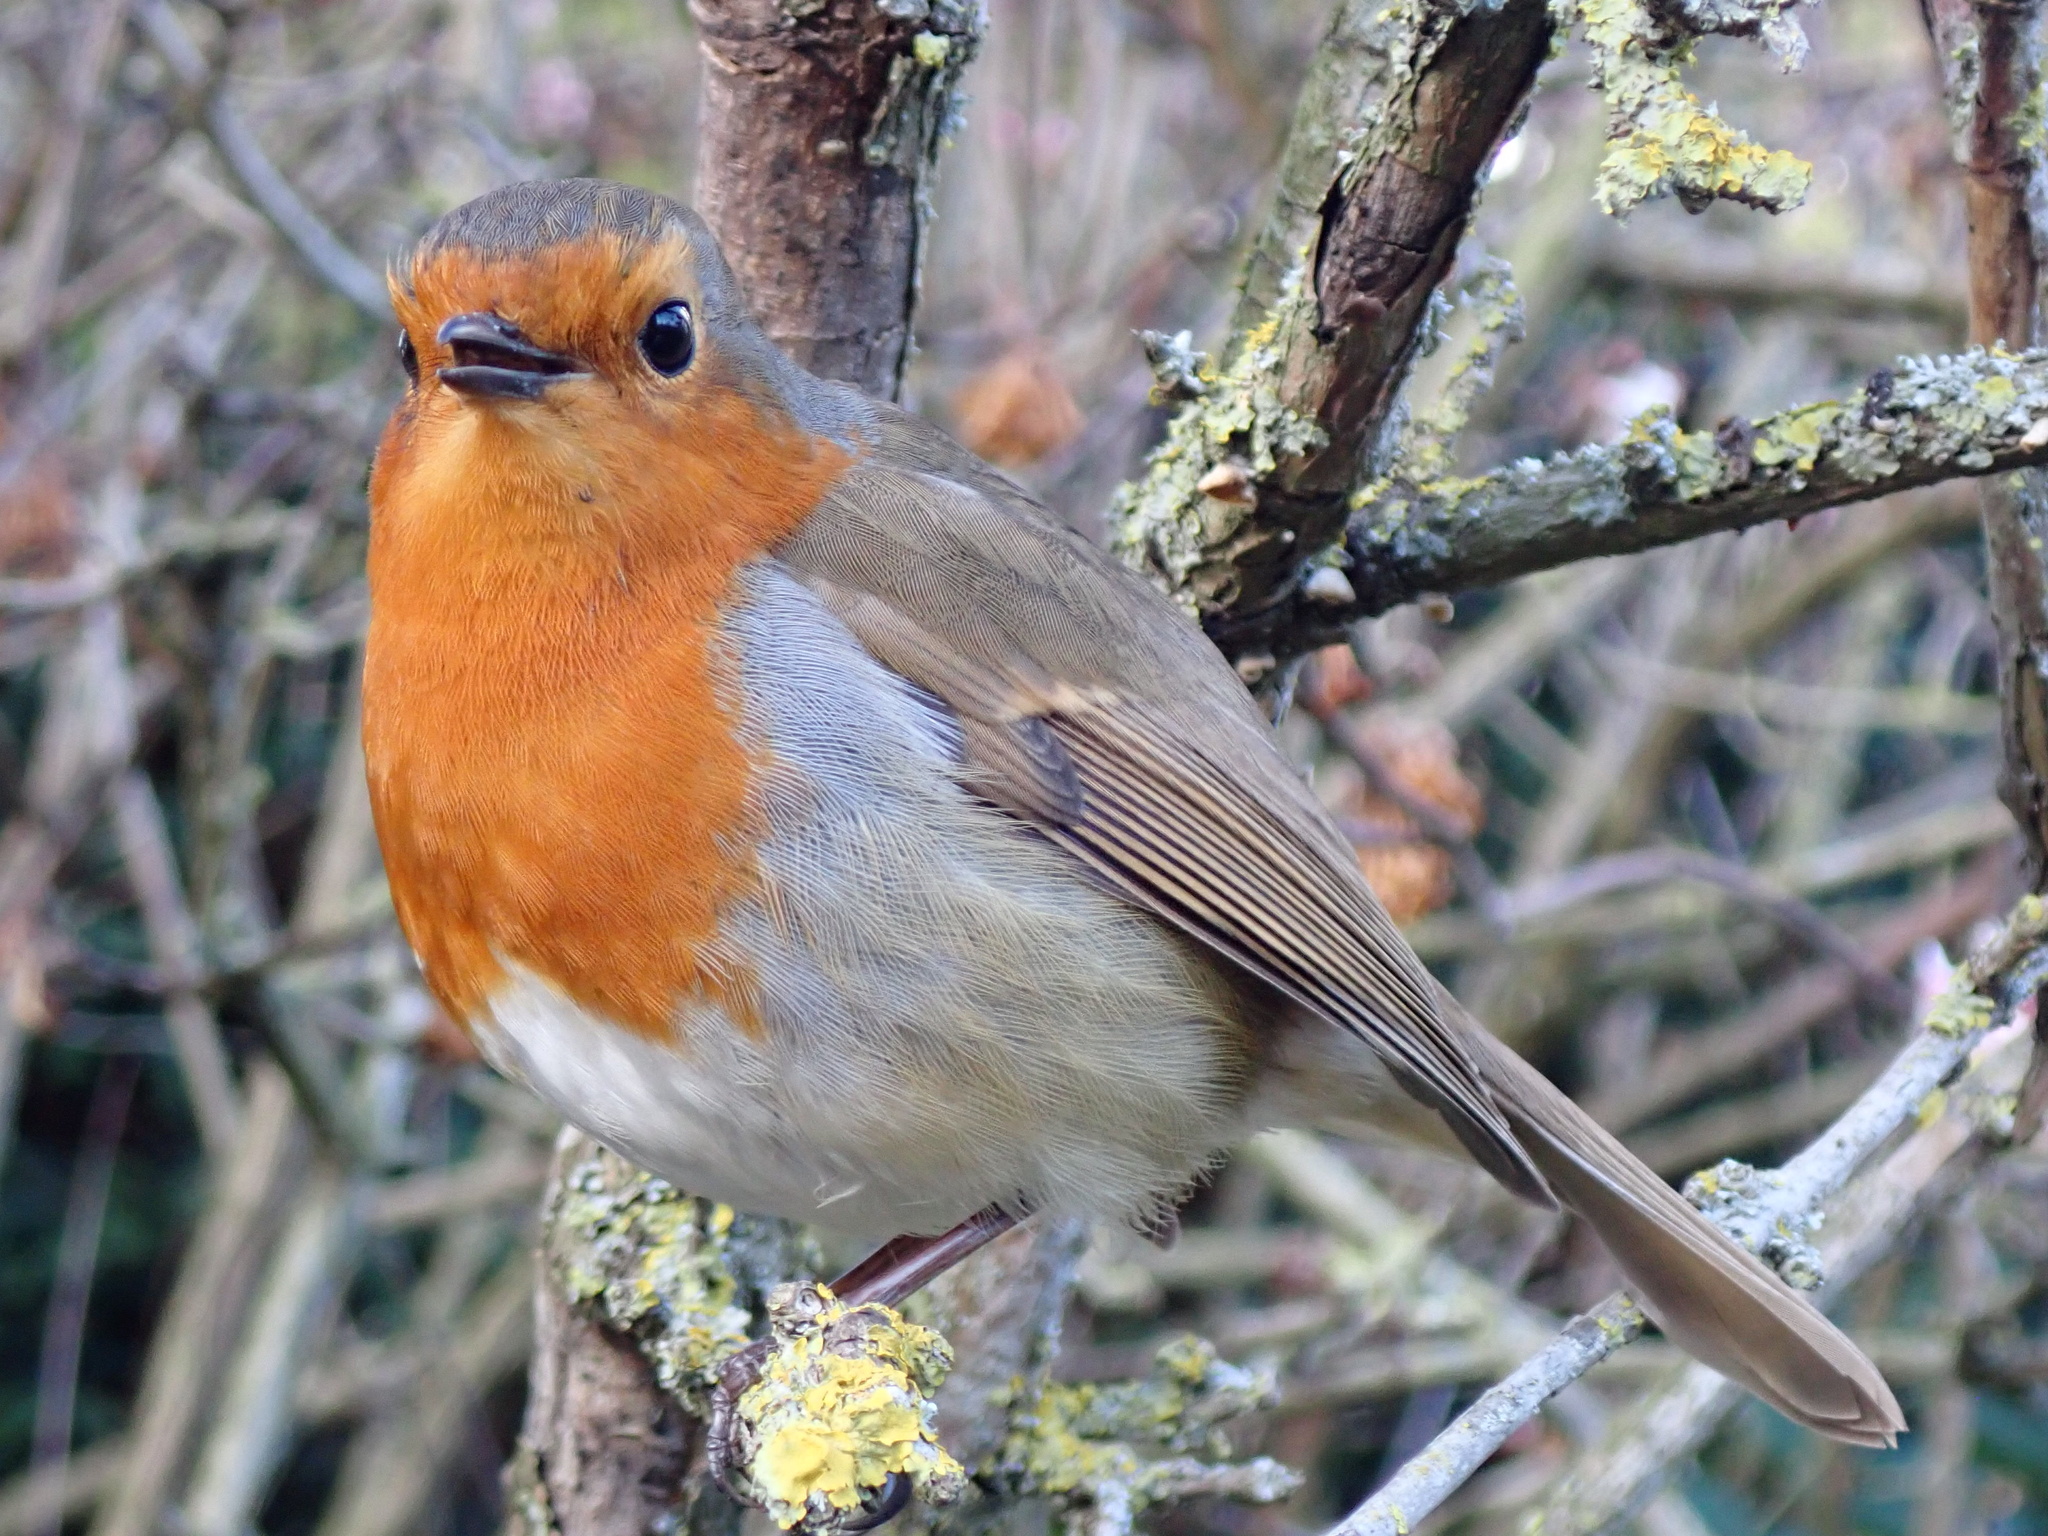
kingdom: Animalia
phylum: Chordata
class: Aves
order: Passeriformes
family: Muscicapidae
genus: Erithacus
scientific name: Erithacus rubecula
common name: European robin
